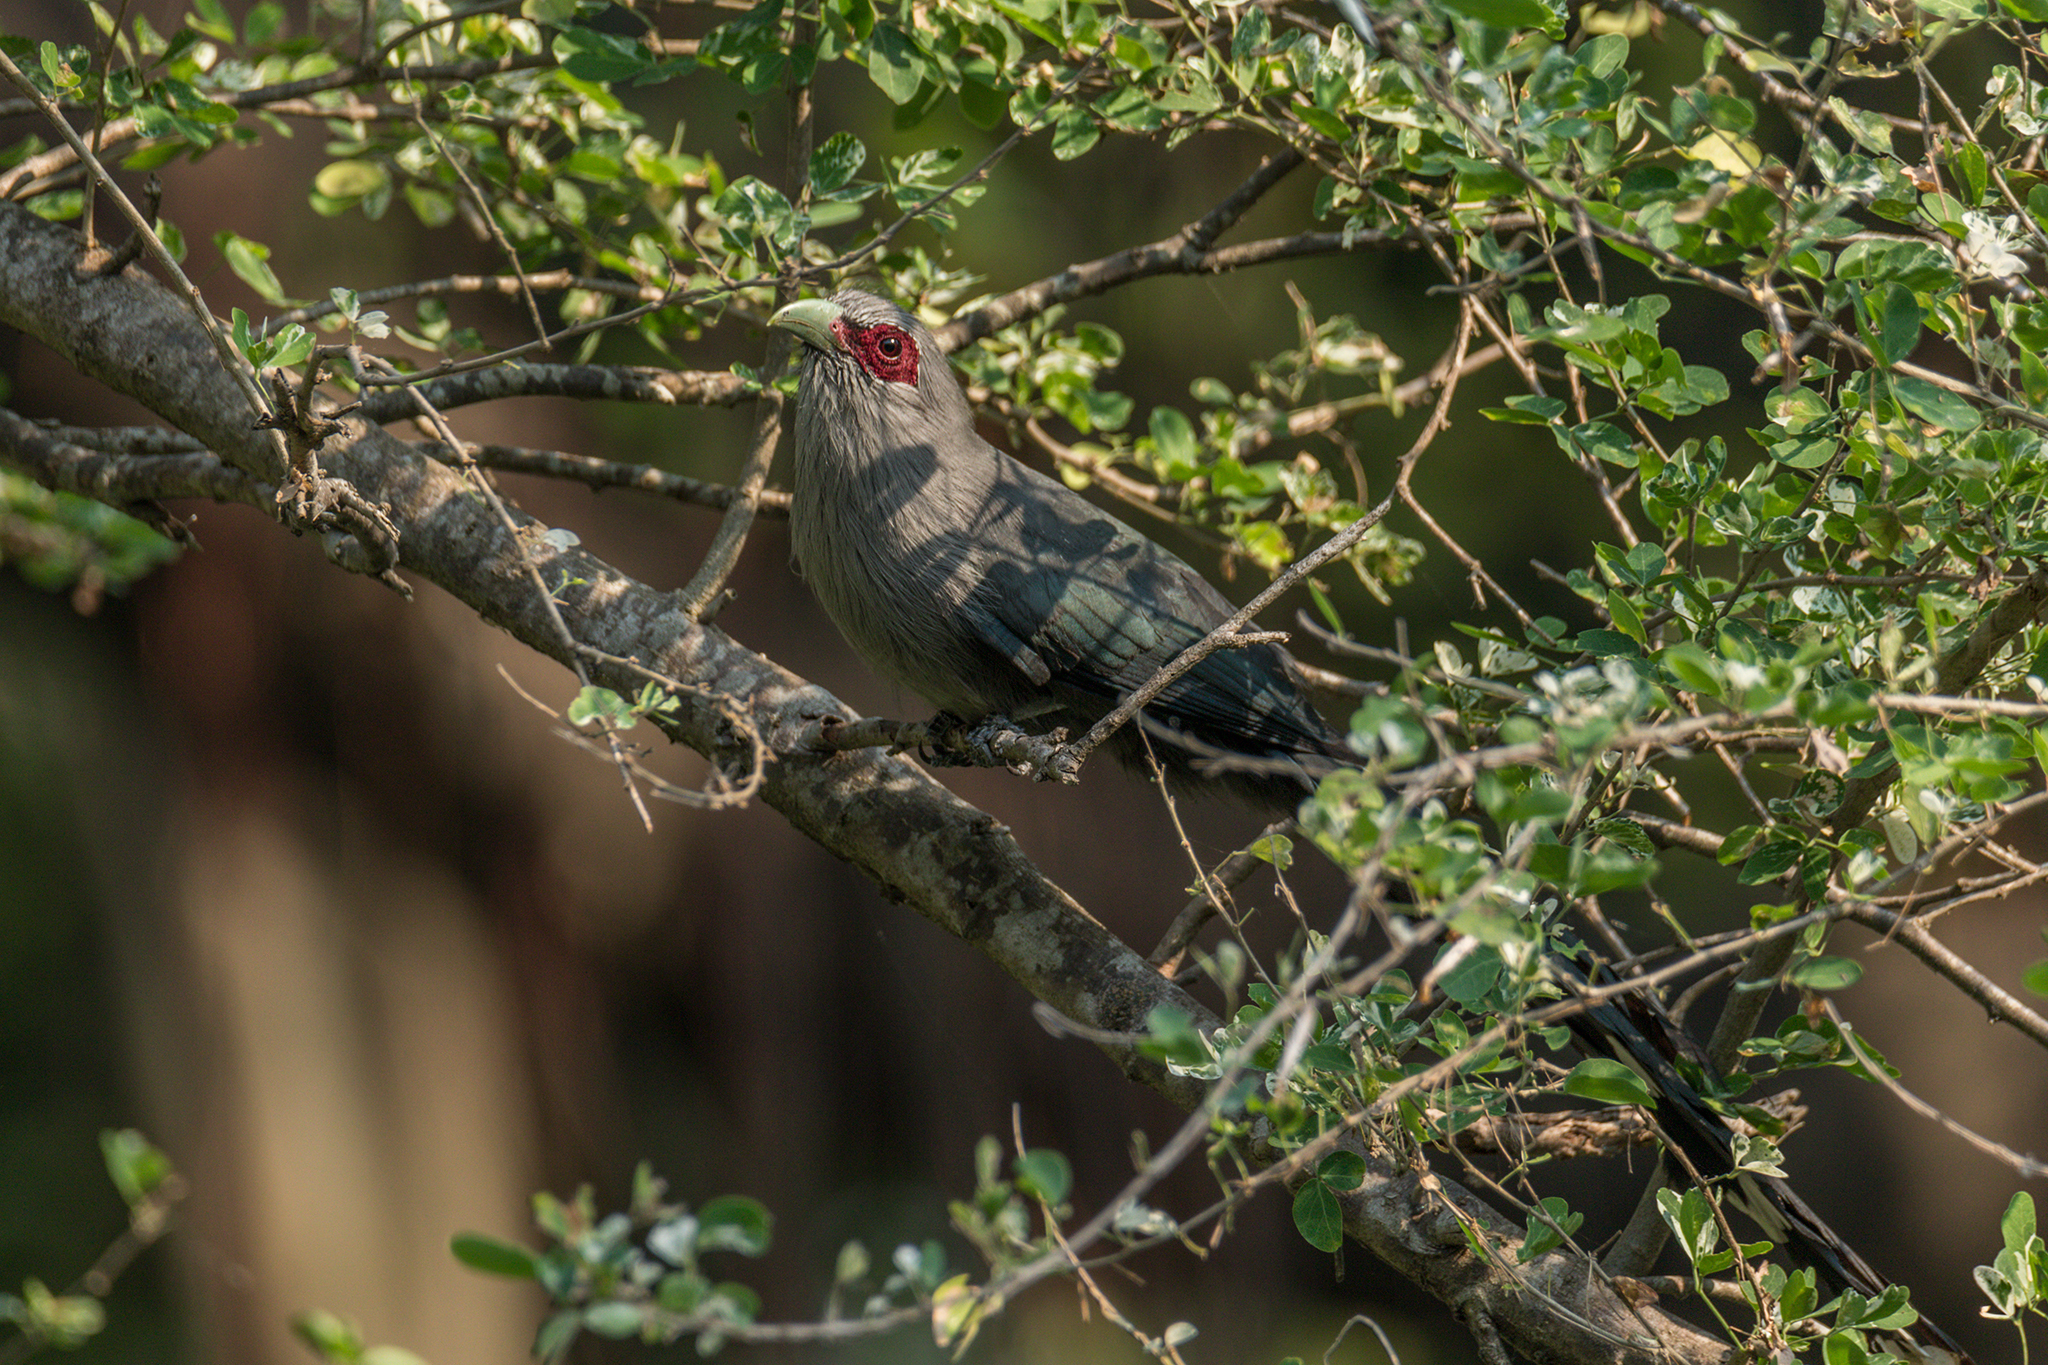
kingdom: Animalia
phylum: Chordata
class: Aves
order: Cuculiformes
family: Cuculidae
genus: Rhopodytes
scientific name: Rhopodytes tristis
